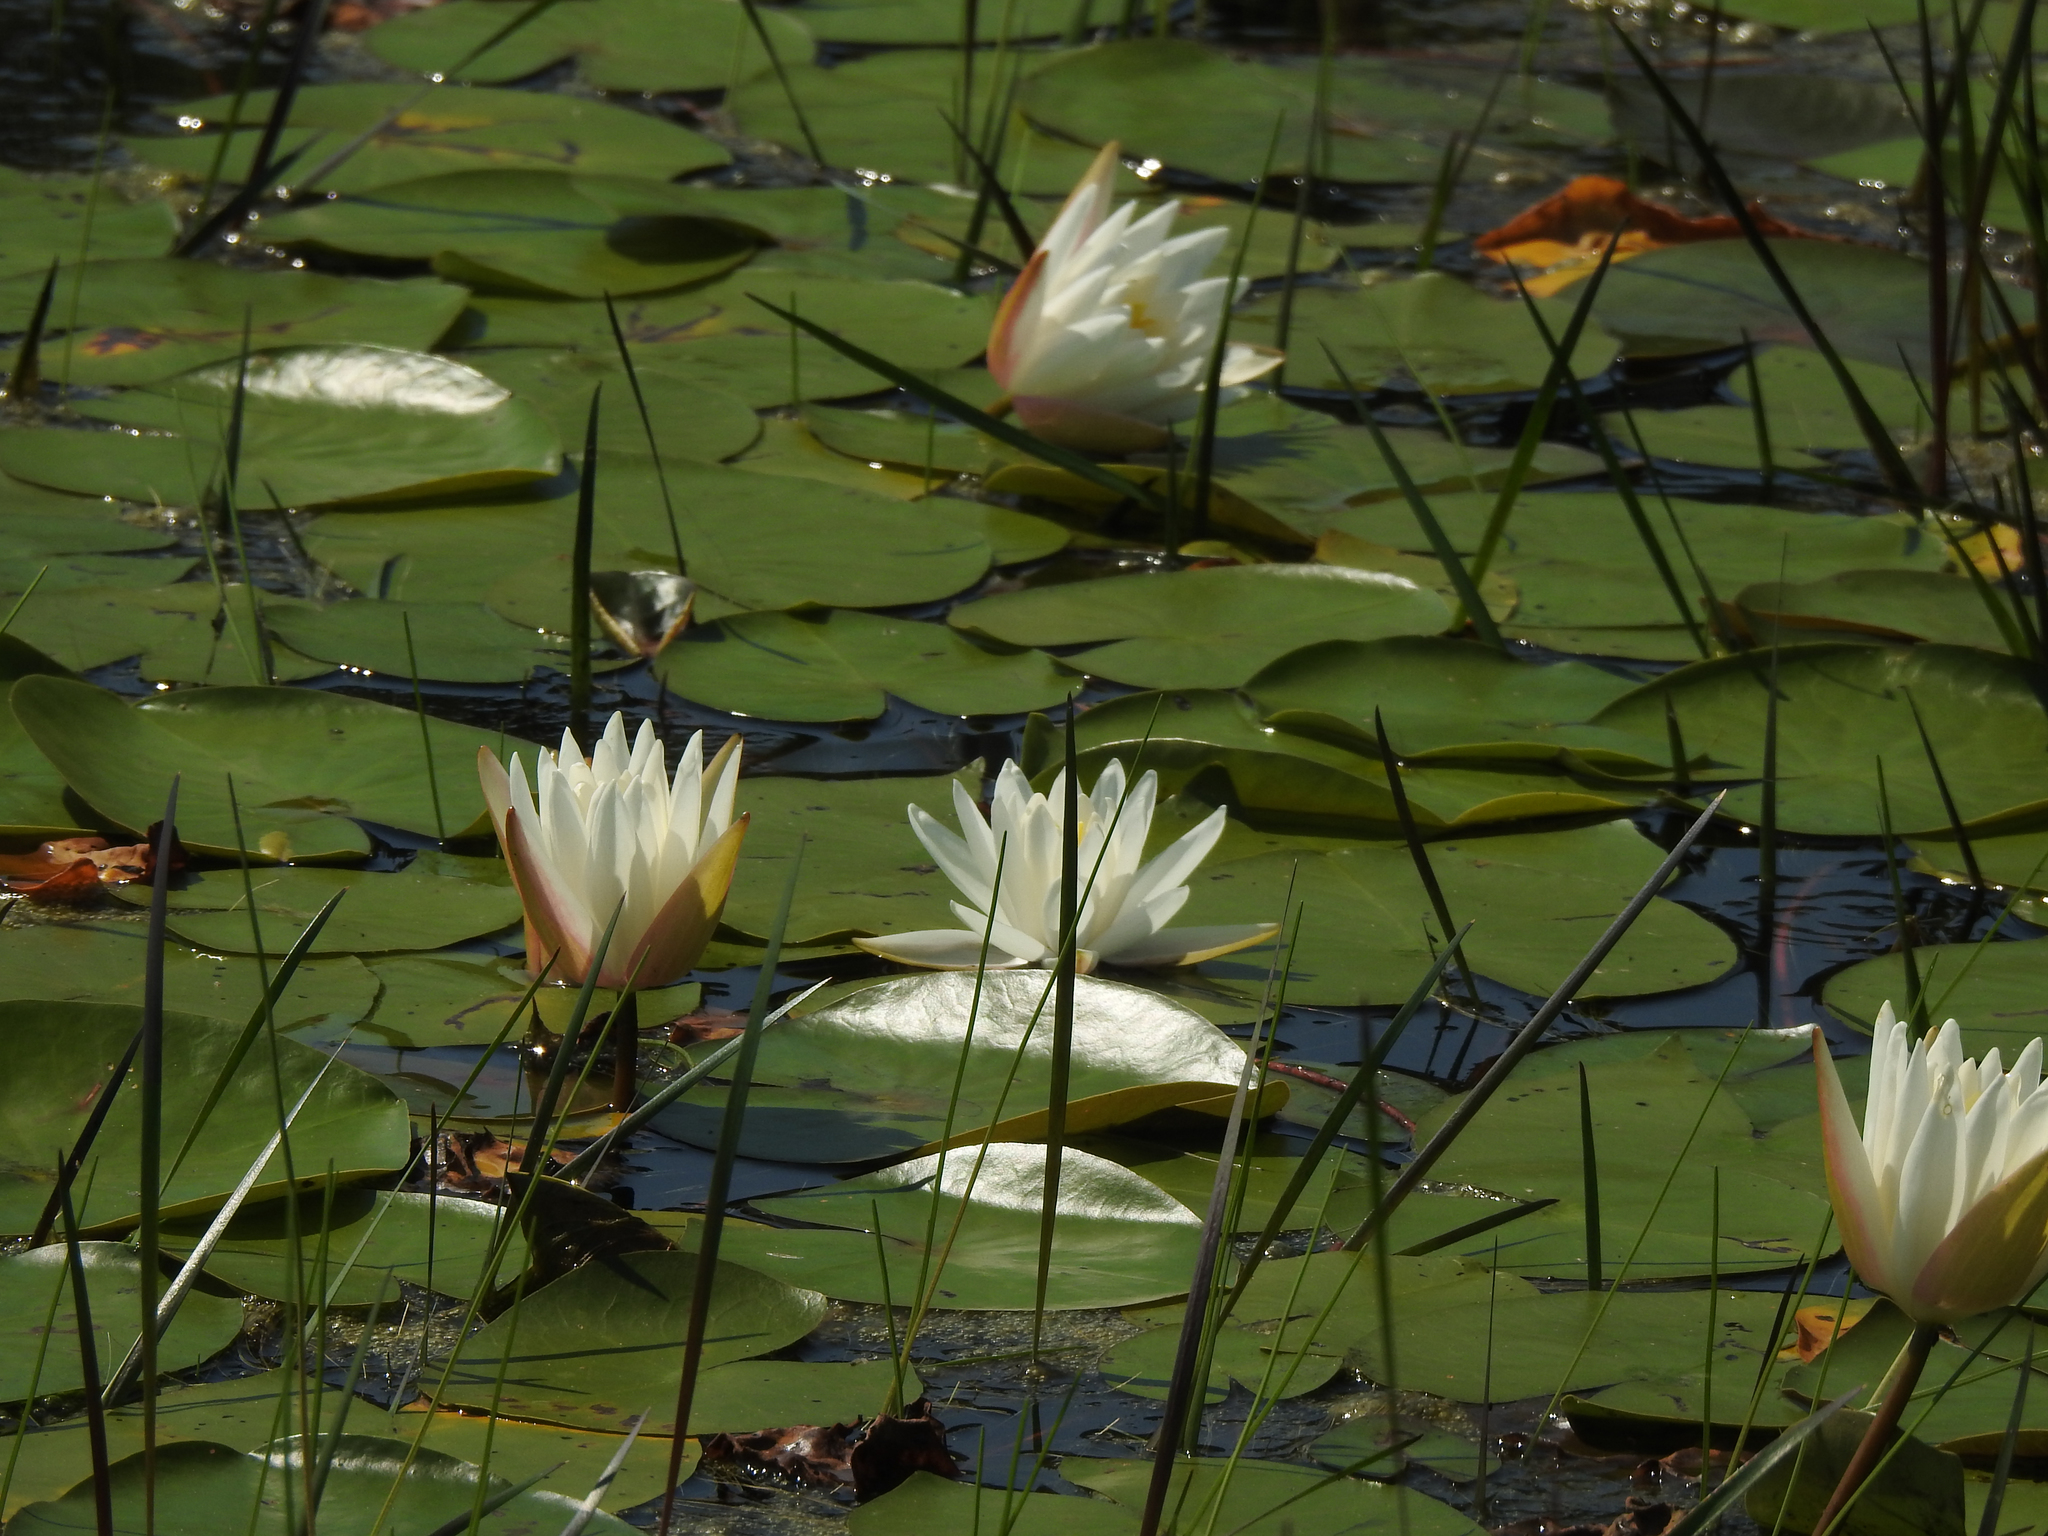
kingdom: Plantae
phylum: Tracheophyta
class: Magnoliopsida
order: Nymphaeales
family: Nymphaeaceae
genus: Nymphaea
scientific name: Nymphaea odorata
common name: Fragrant water-lily
